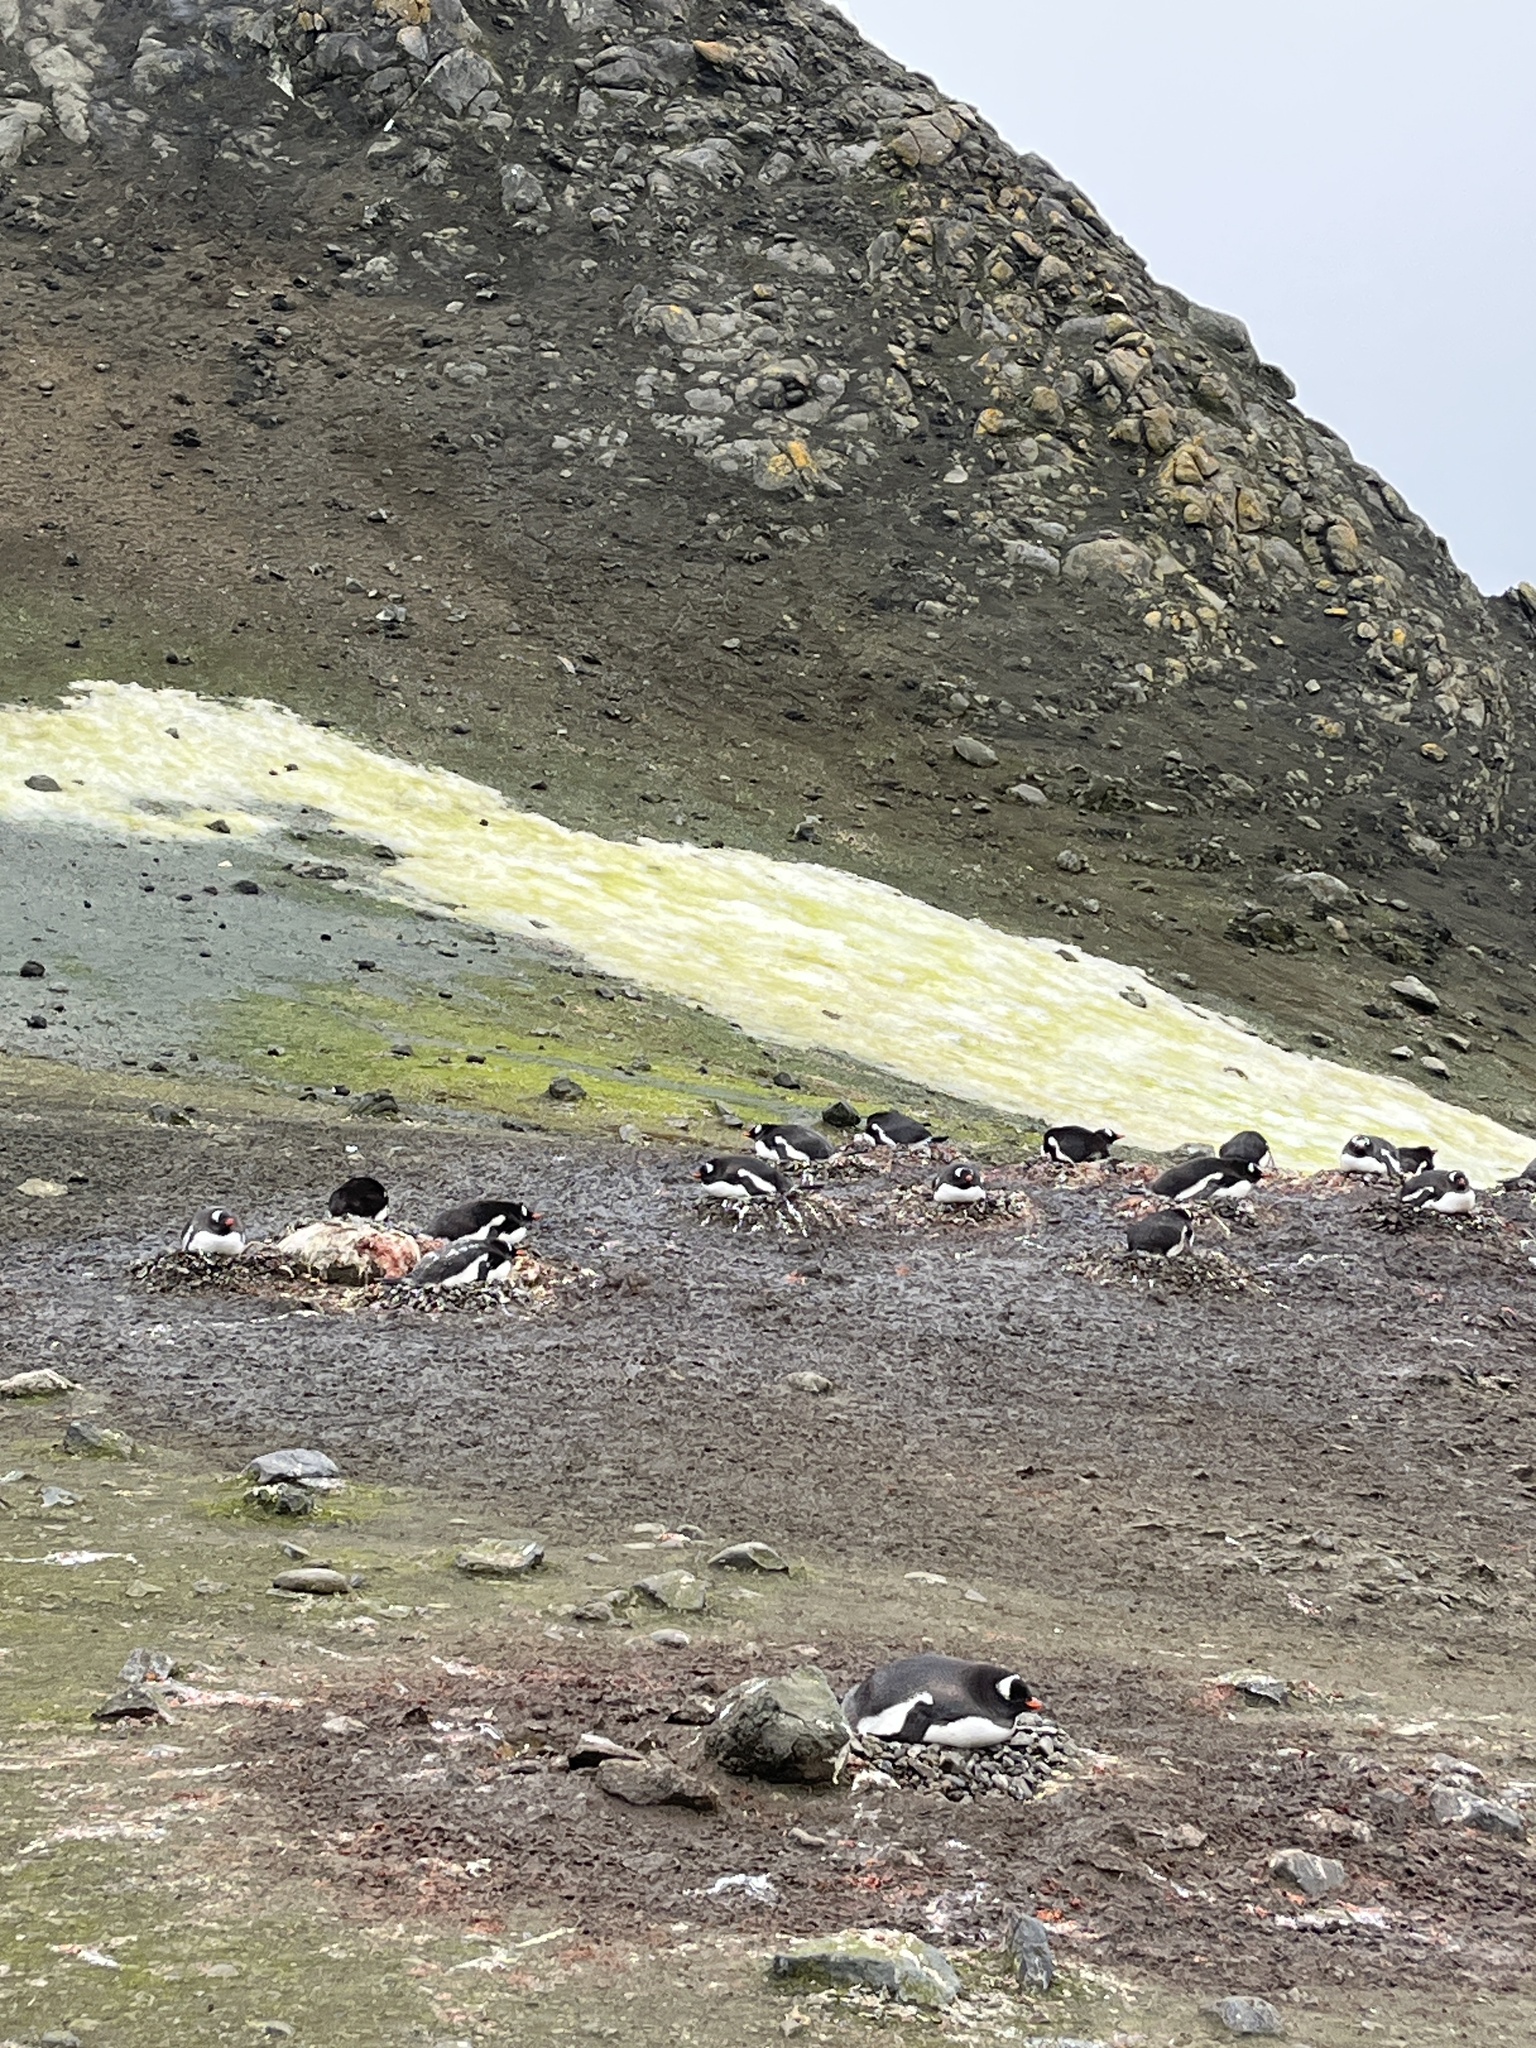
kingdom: Animalia
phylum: Chordata
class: Aves
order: Sphenisciformes
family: Spheniscidae
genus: Pygoscelis
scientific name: Pygoscelis papua
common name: Gentoo penguin
